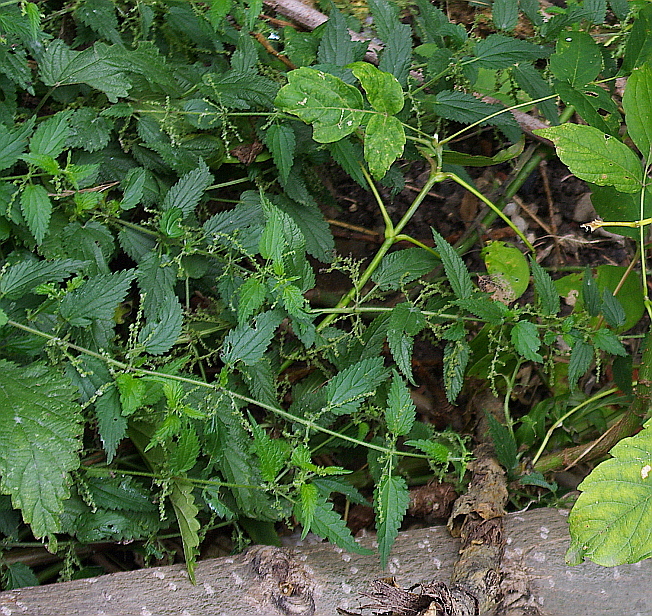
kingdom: Plantae
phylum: Tracheophyta
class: Magnoliopsida
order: Rosales
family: Urticaceae
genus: Urtica
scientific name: Urtica dioica
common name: Common nettle
